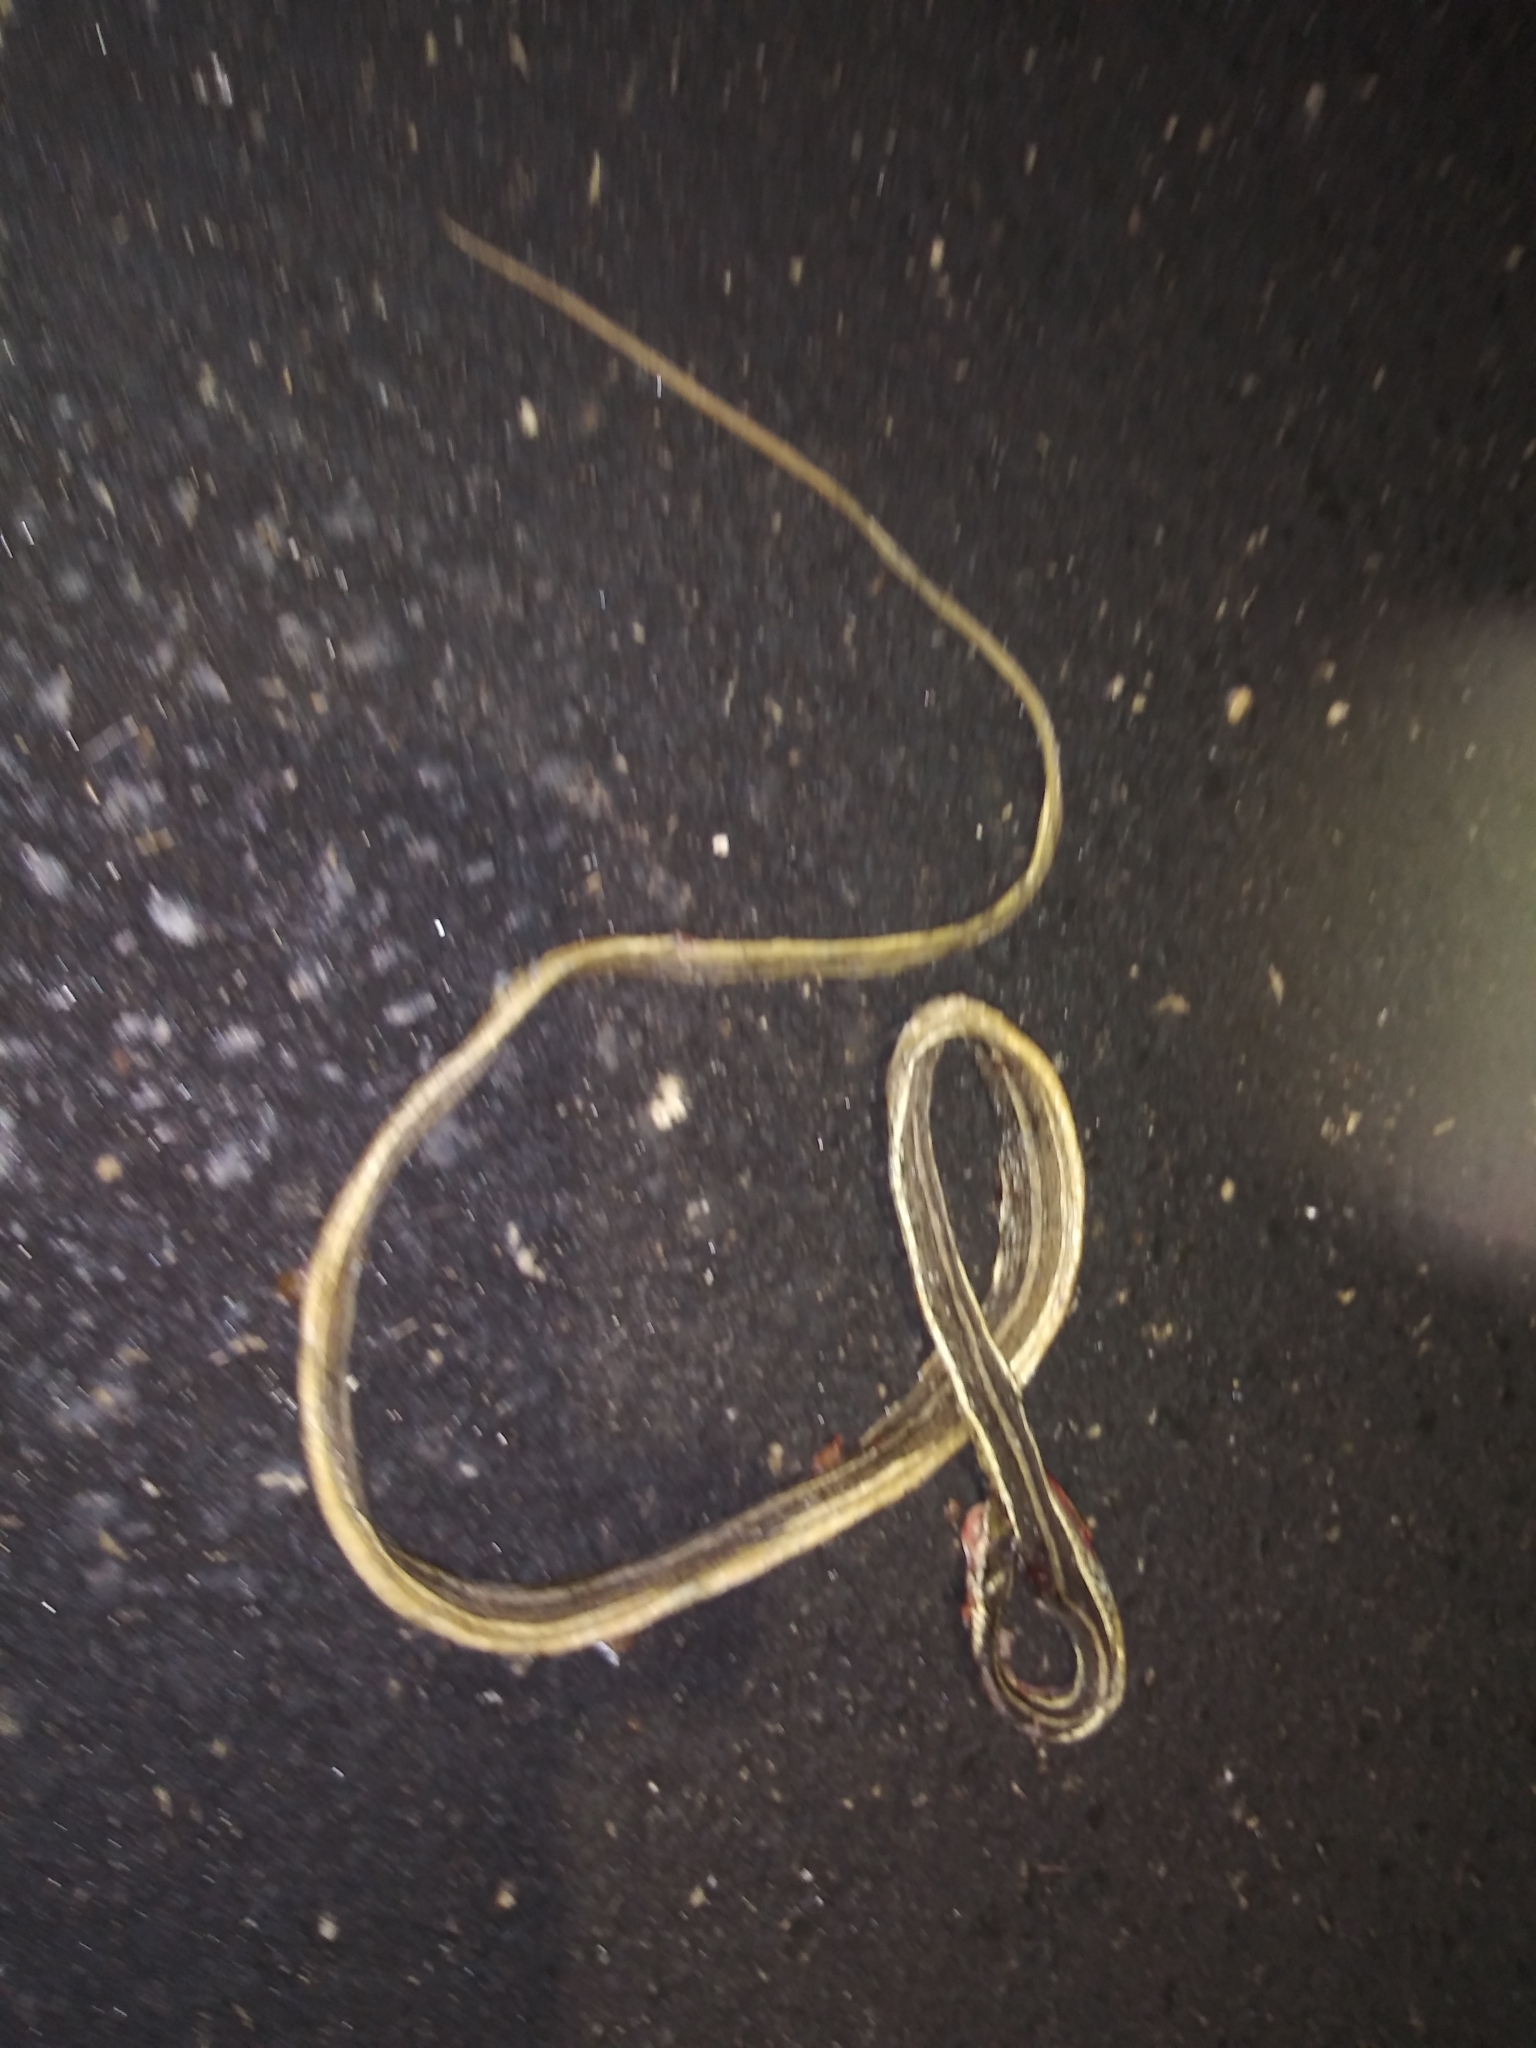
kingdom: Animalia
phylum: Chordata
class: Squamata
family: Colubridae
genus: Thamnophis
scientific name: Thamnophis saurita
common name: Eastern ribbonsnake
